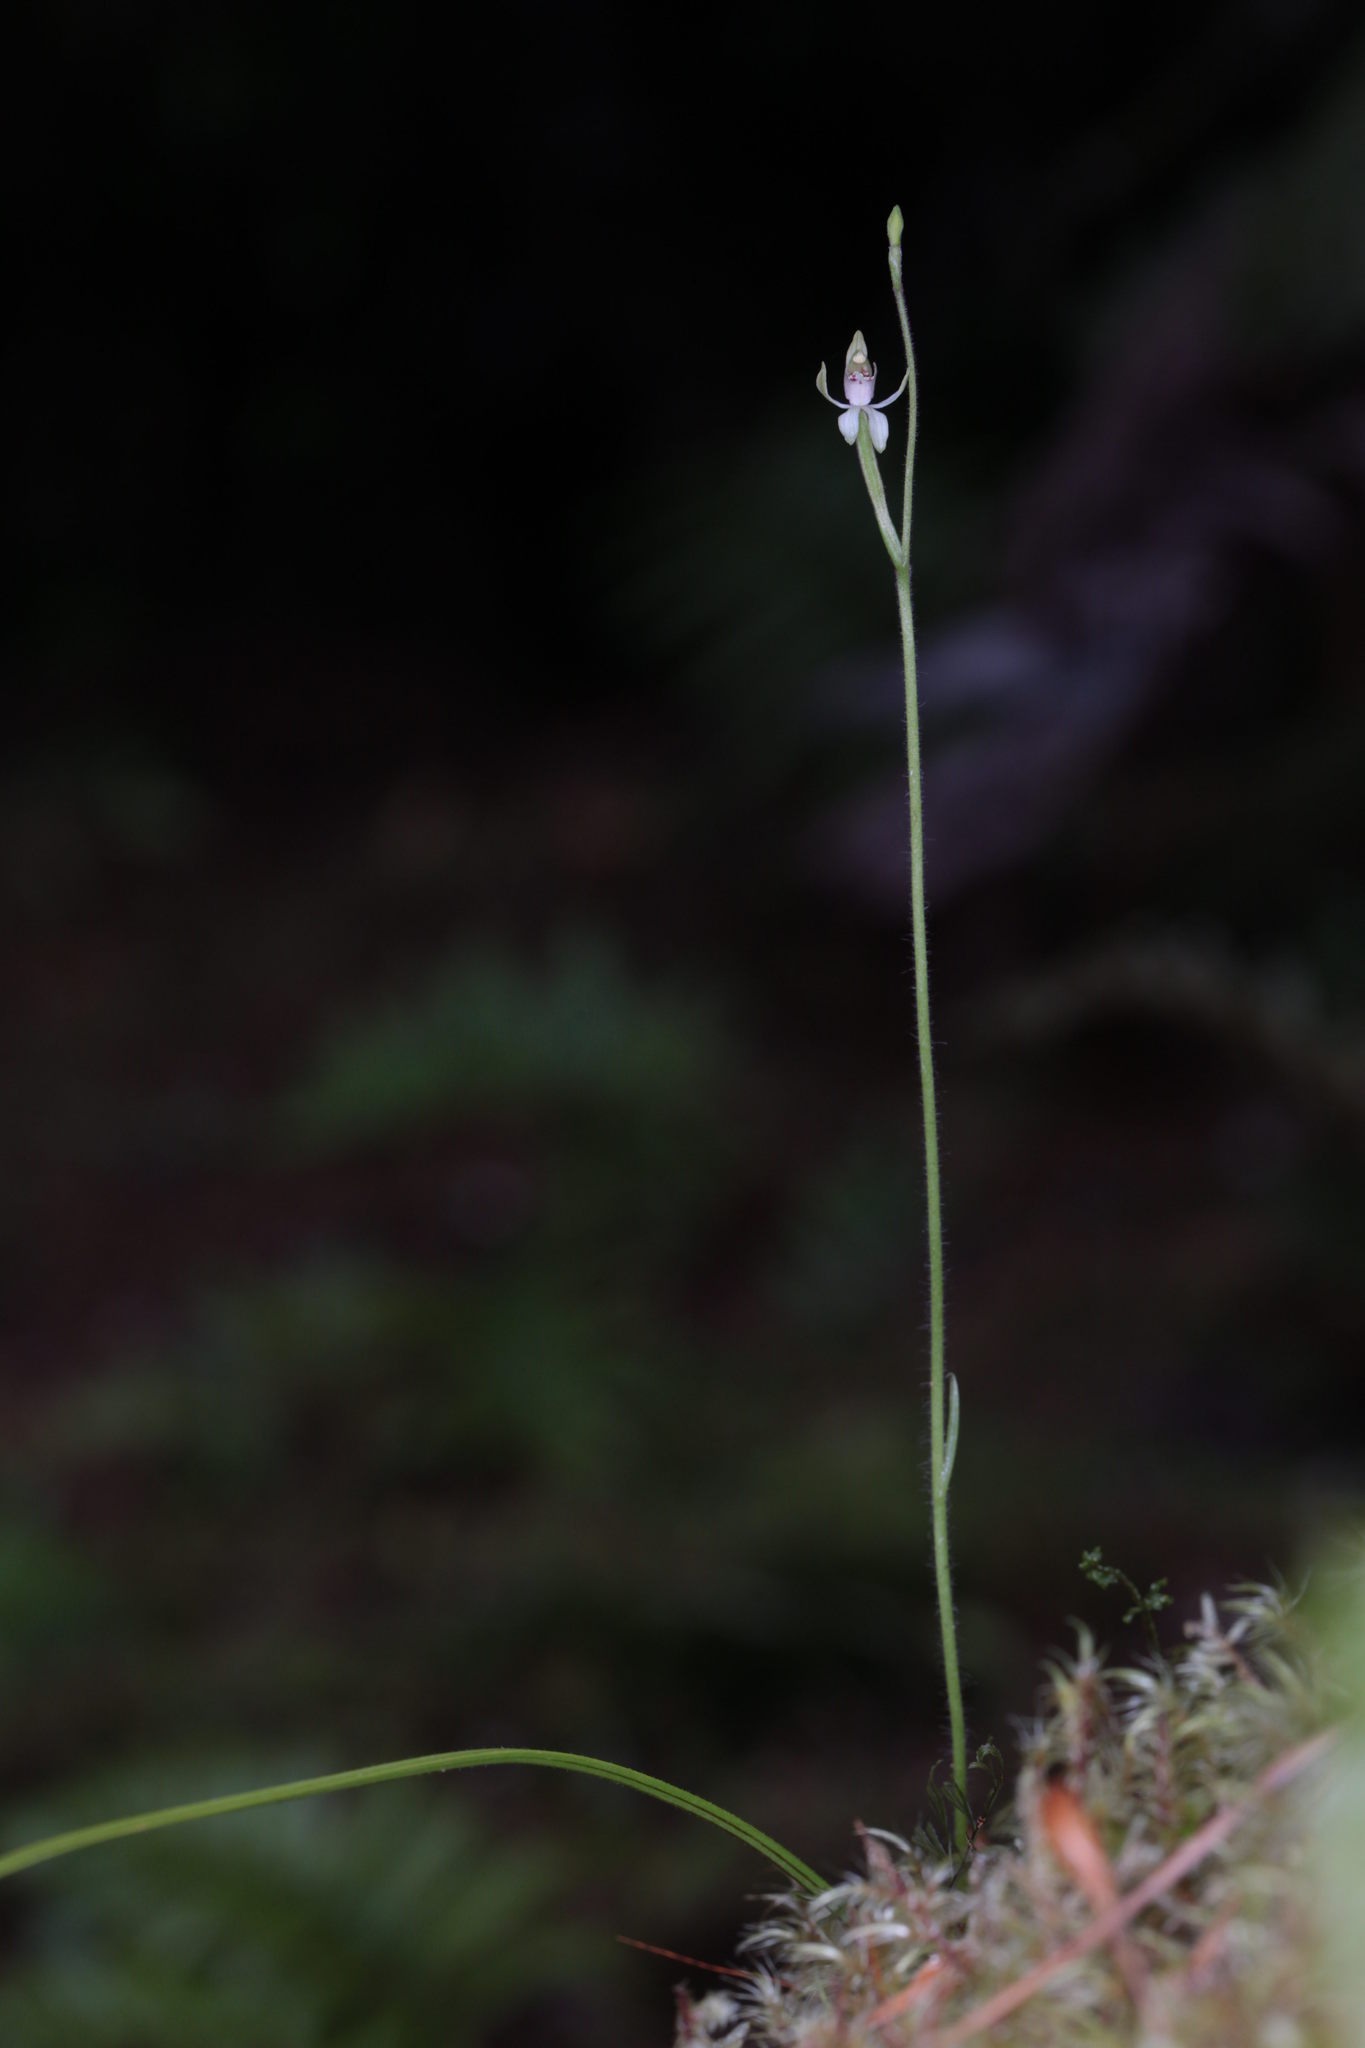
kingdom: Plantae
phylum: Tracheophyta
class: Liliopsida
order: Asparagales
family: Orchidaceae
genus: Caladenia
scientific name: Caladenia chlorostyla
